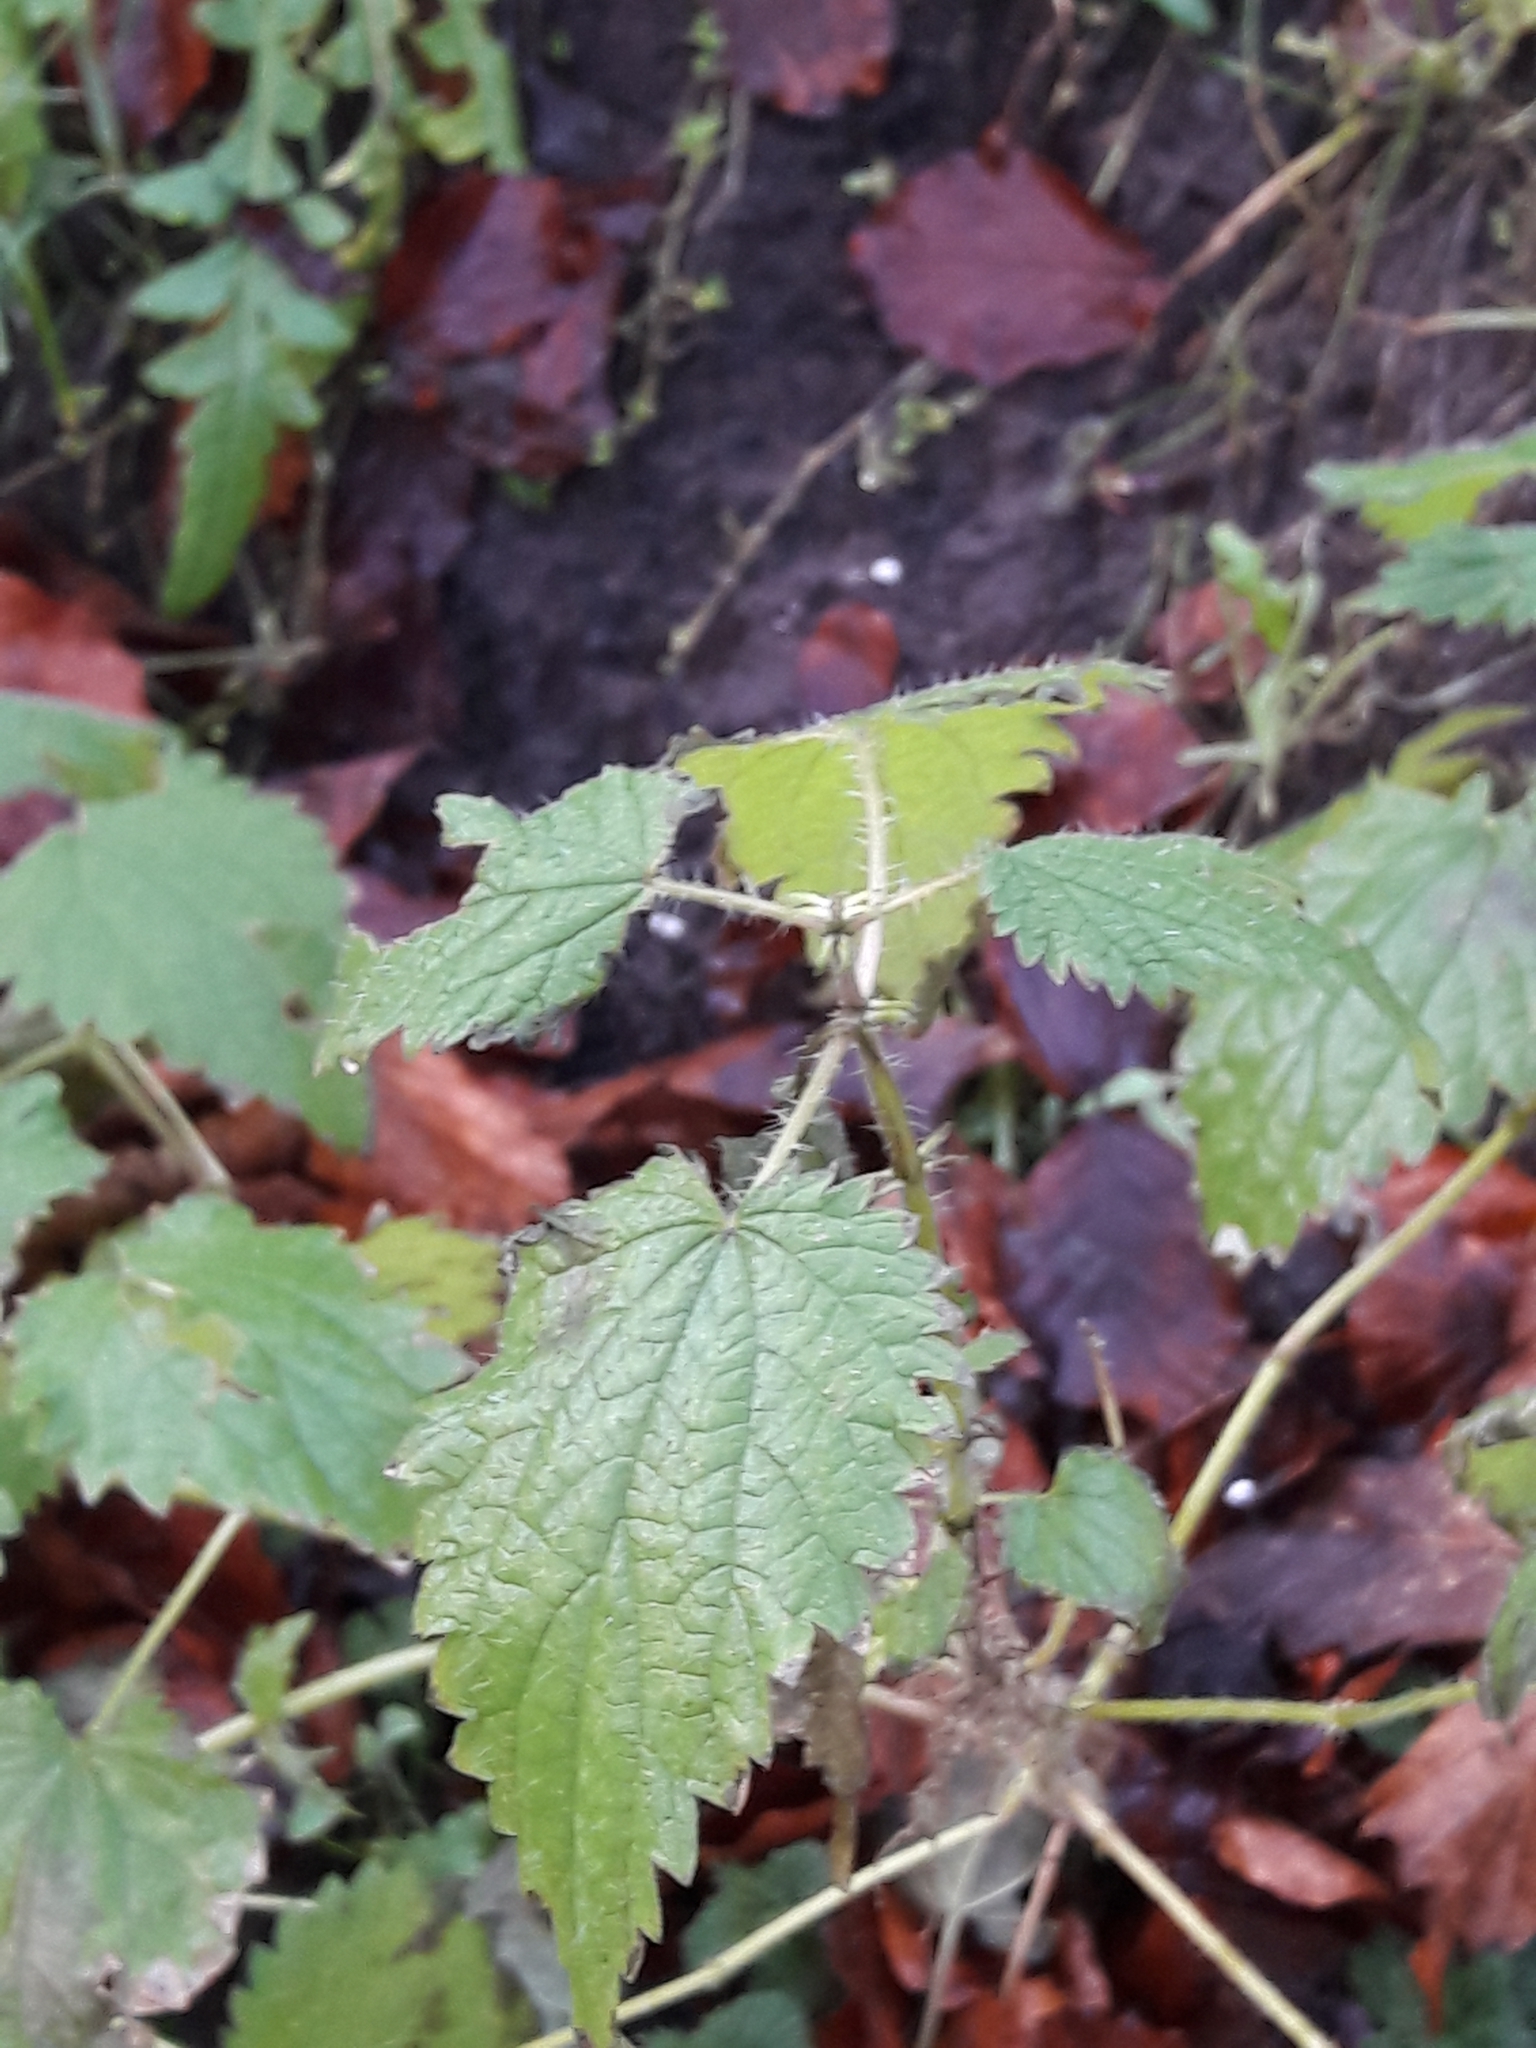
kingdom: Plantae
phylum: Tracheophyta
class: Magnoliopsida
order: Rosales
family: Urticaceae
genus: Urtica
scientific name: Urtica dioica
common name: Common nettle
